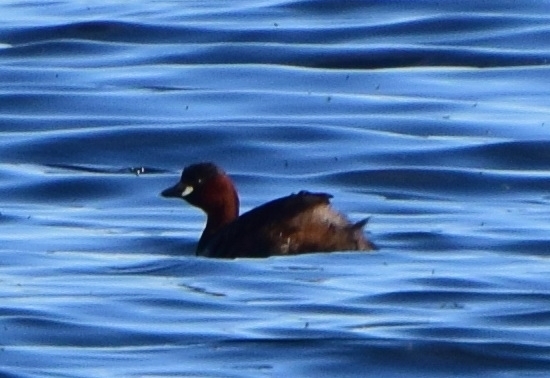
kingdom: Animalia
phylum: Chordata
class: Aves
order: Podicipediformes
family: Podicipedidae
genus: Tachybaptus
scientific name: Tachybaptus ruficollis
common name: Little grebe
